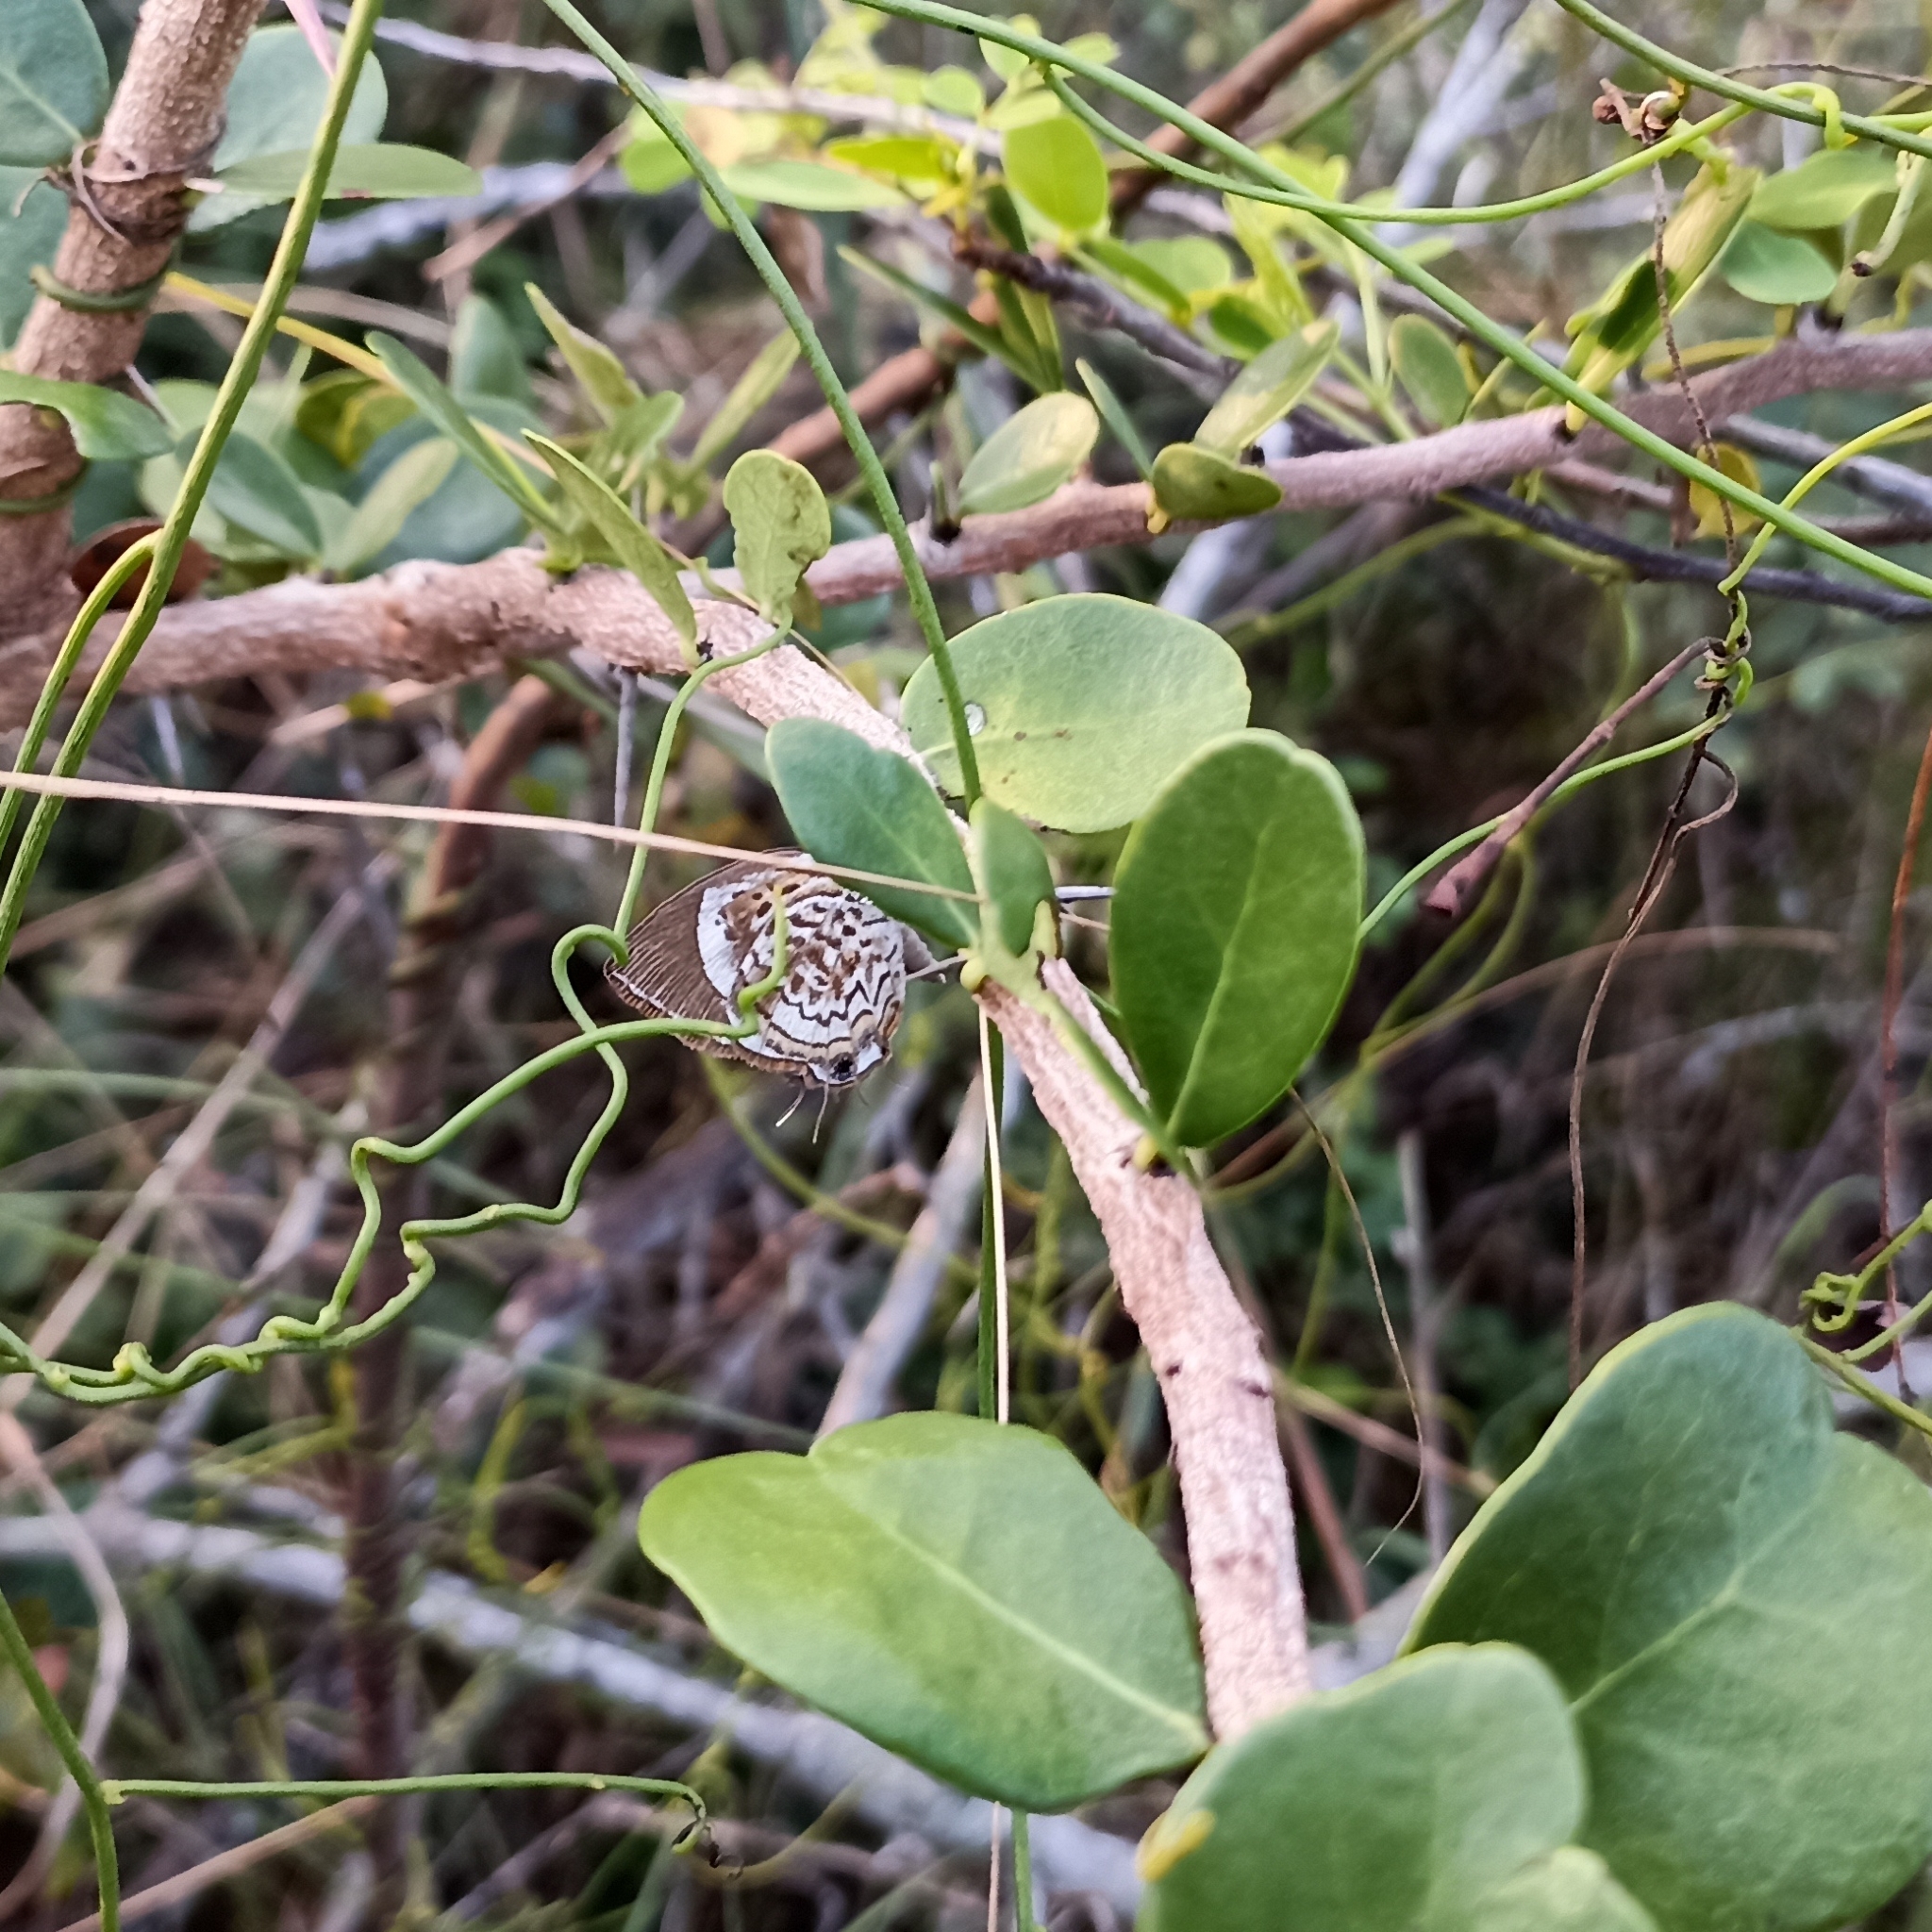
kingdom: Animalia
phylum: Arthropoda
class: Insecta
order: Lepidoptera
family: Lycaenidae
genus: Rathinda
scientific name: Rathinda amor
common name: Monkey puzzle
